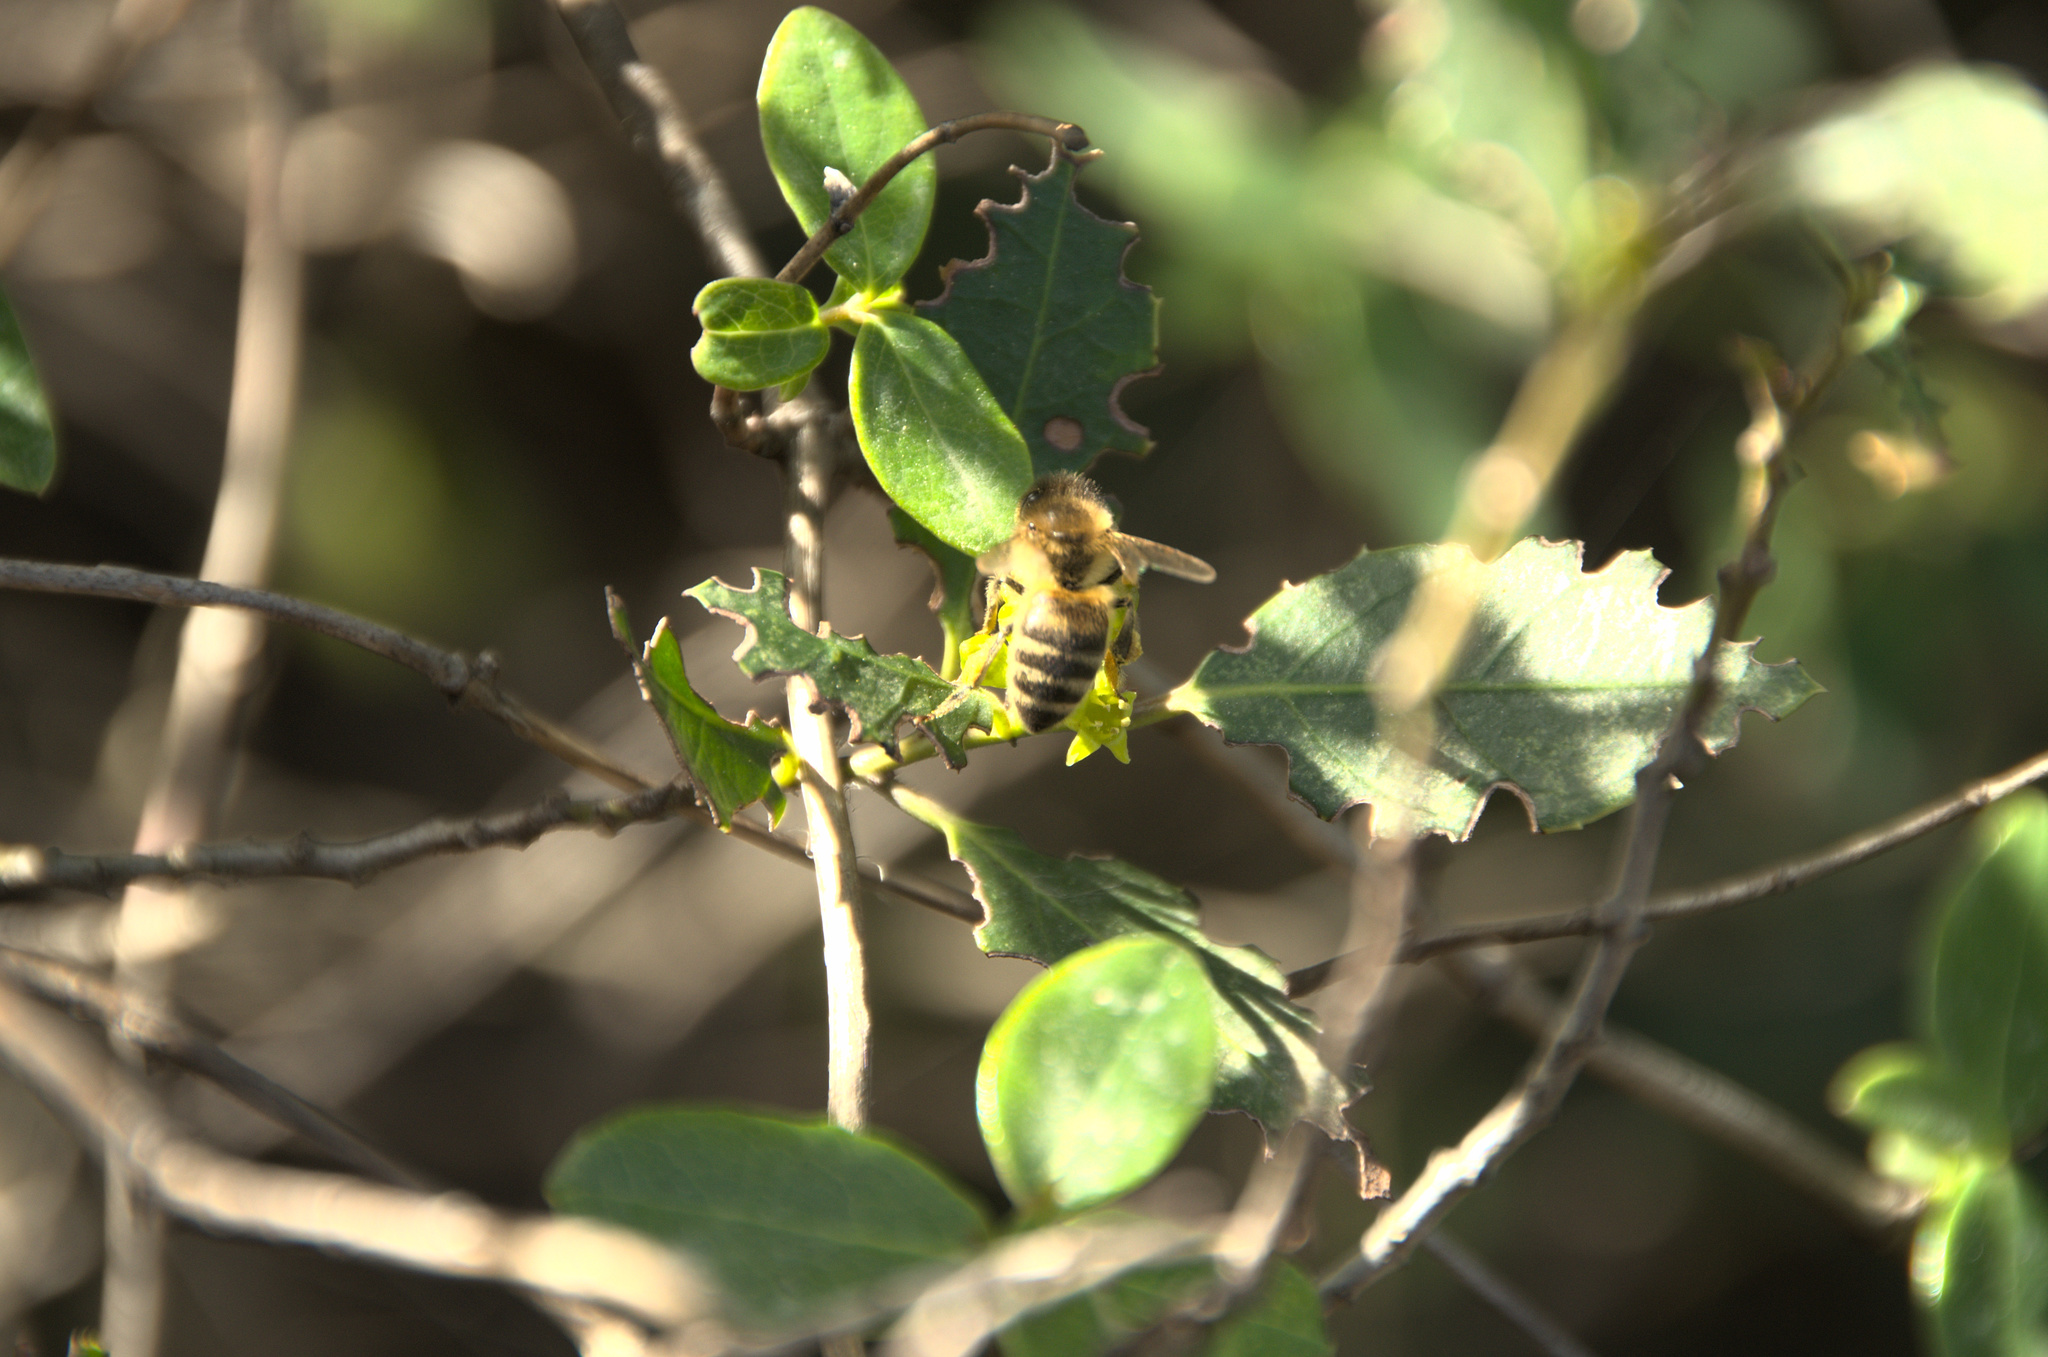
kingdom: Animalia
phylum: Arthropoda
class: Insecta
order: Hymenoptera
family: Apidae
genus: Apis
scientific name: Apis mellifera
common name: Honey bee
